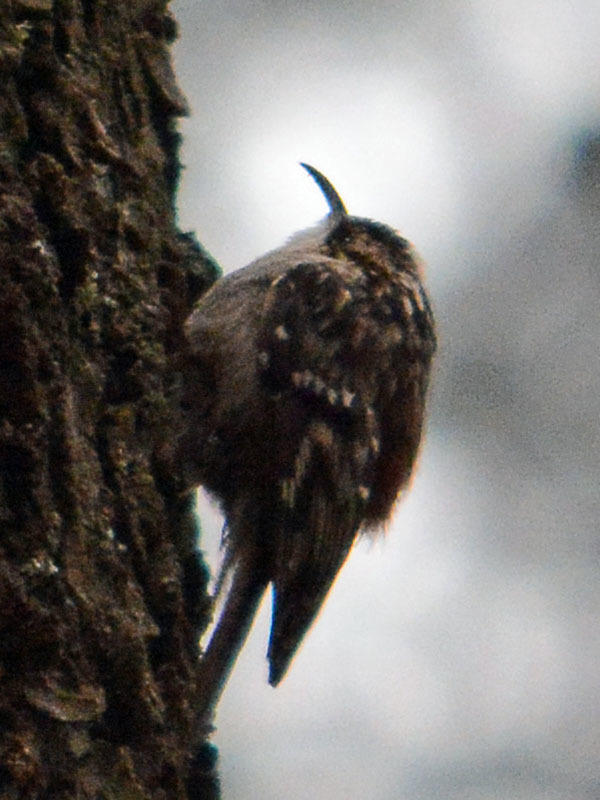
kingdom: Animalia
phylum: Chordata
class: Aves
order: Passeriformes
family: Certhiidae
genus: Certhia
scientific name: Certhia americana
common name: Brown creeper
